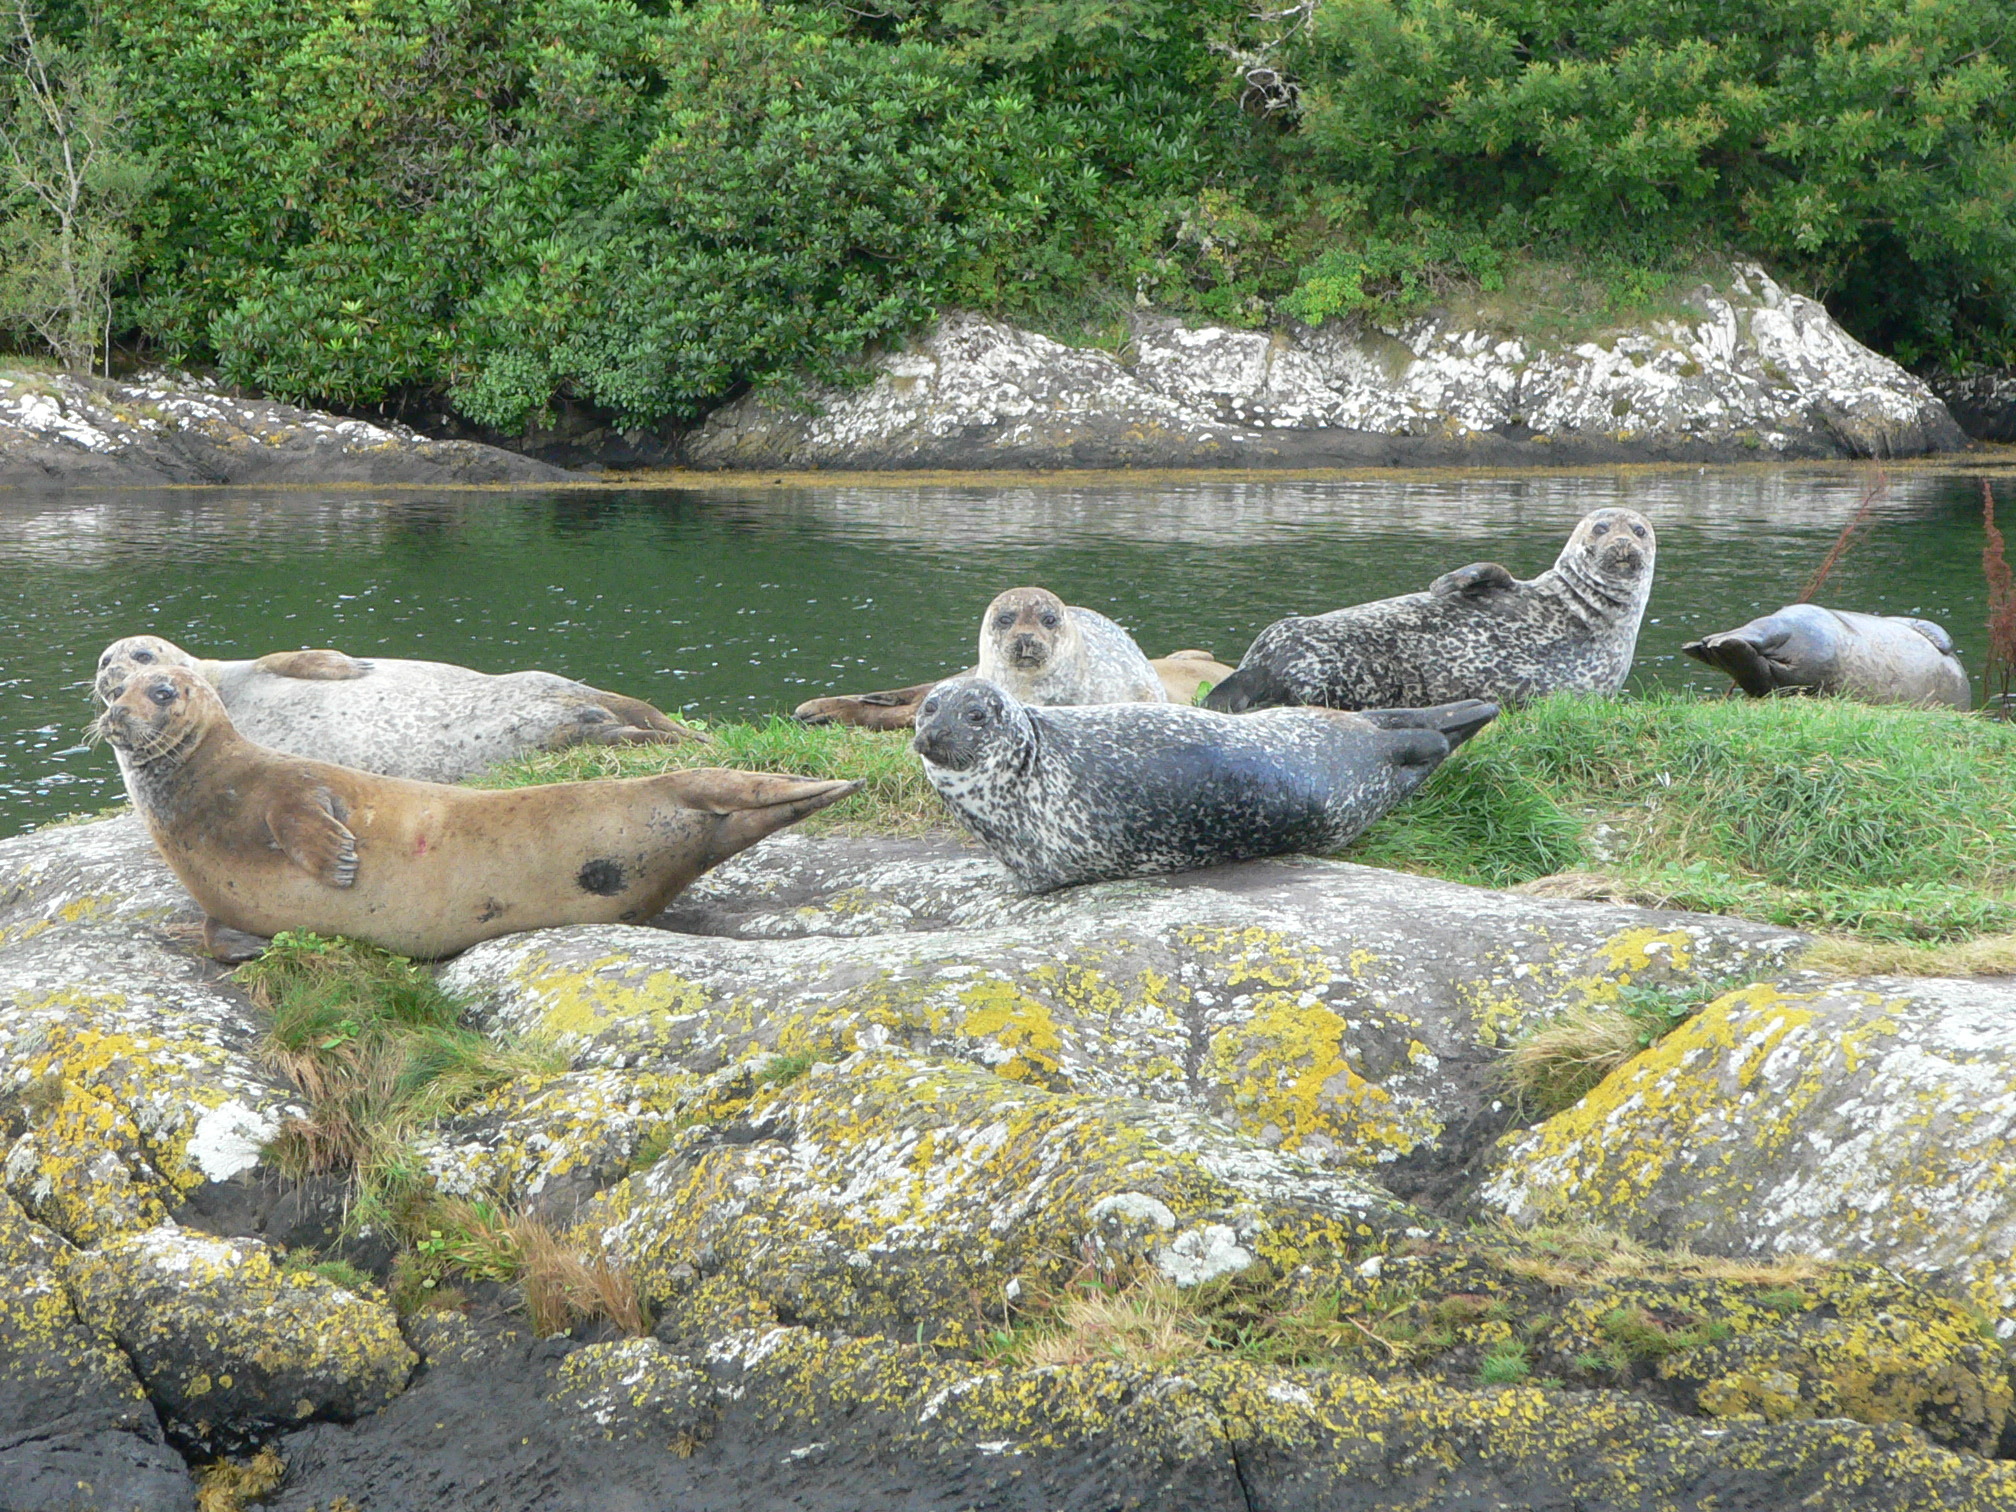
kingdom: Animalia
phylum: Chordata
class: Mammalia
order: Carnivora
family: Phocidae
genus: Phoca
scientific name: Phoca vitulina
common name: Harbor seal
